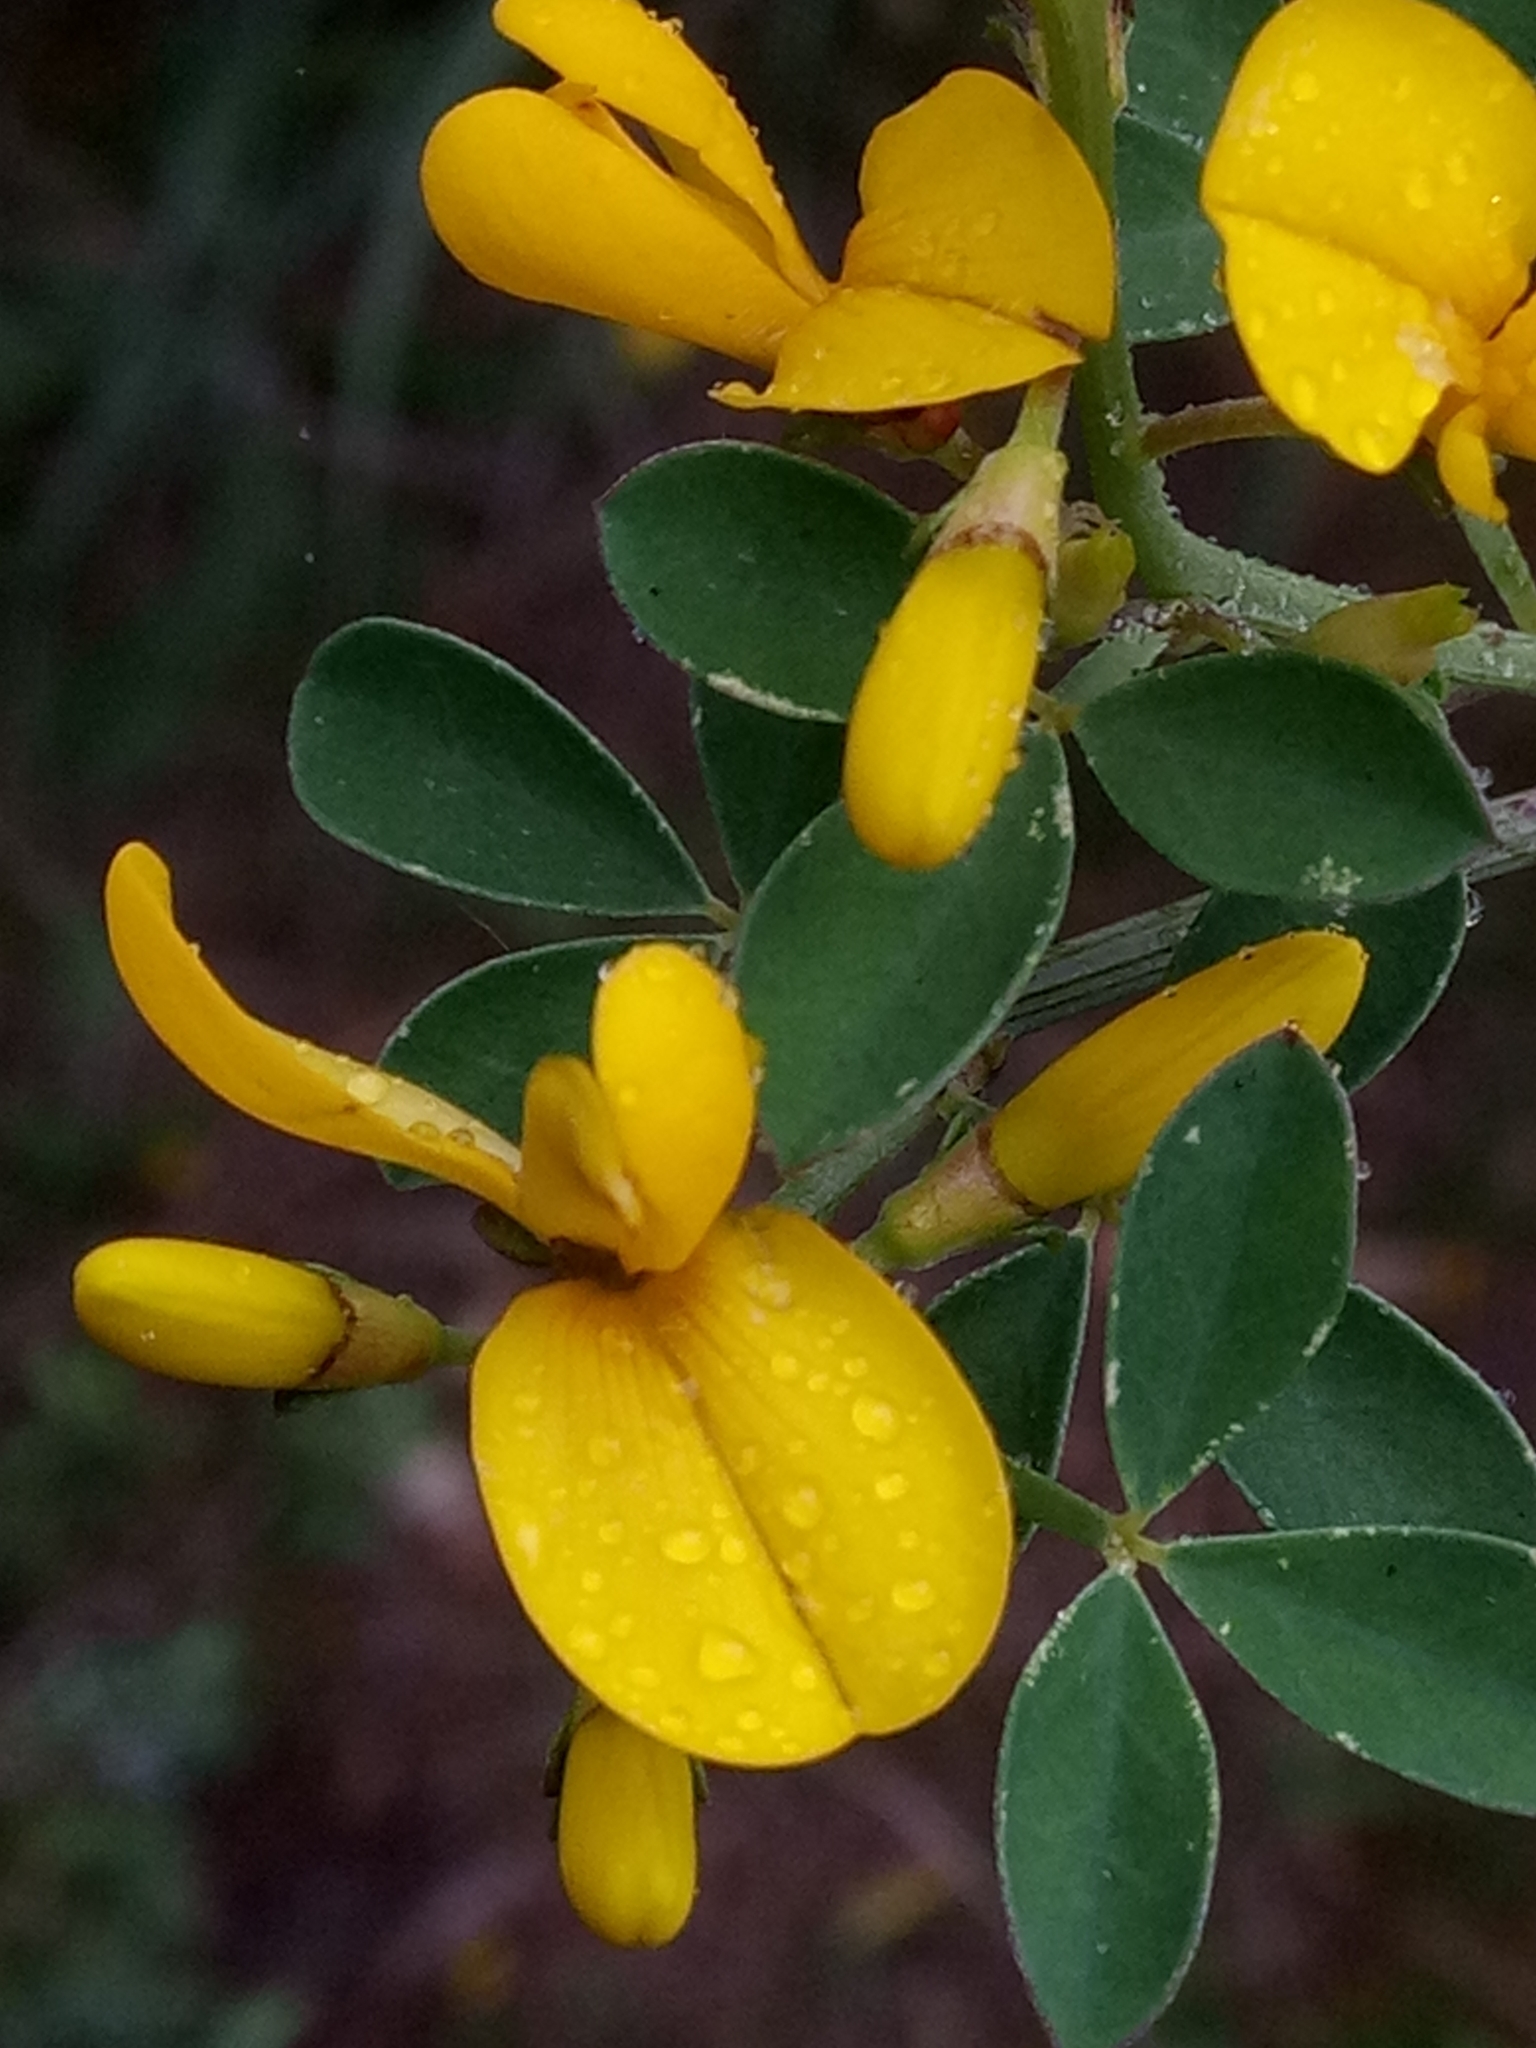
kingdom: Plantae
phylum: Tracheophyta
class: Magnoliopsida
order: Fabales
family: Fabaceae
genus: Calicotome
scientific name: Calicotome spinosa
